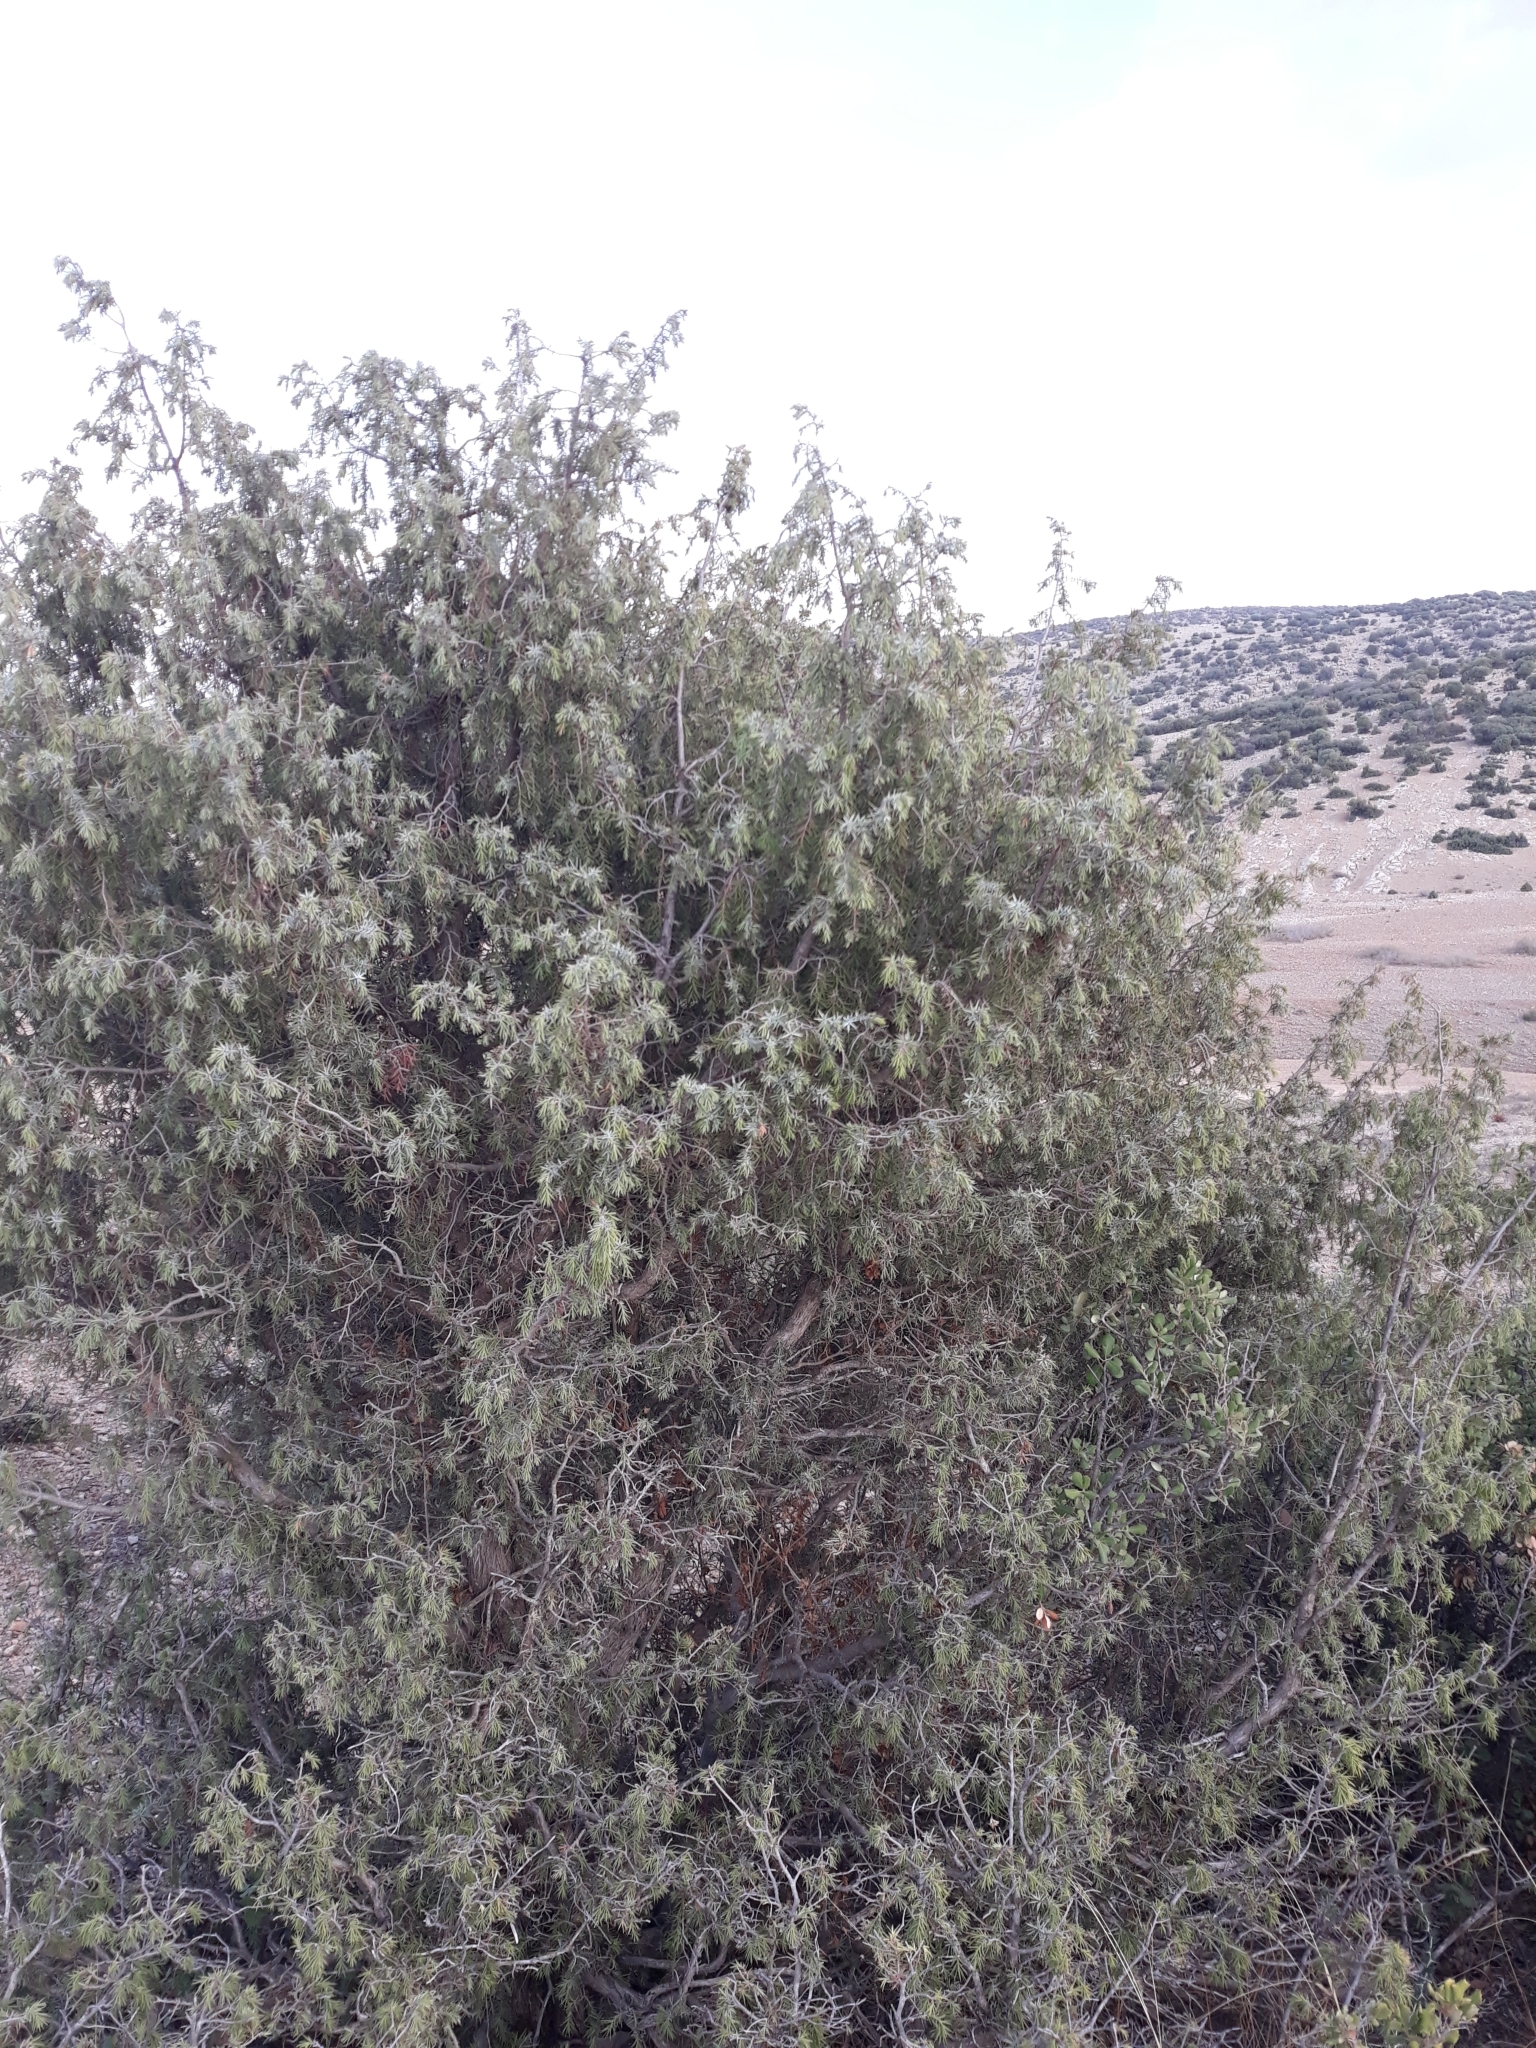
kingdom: Plantae
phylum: Tracheophyta
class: Pinopsida
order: Pinales
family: Cupressaceae
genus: Juniperus
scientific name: Juniperus oxycedrus
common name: Prickly juniper
